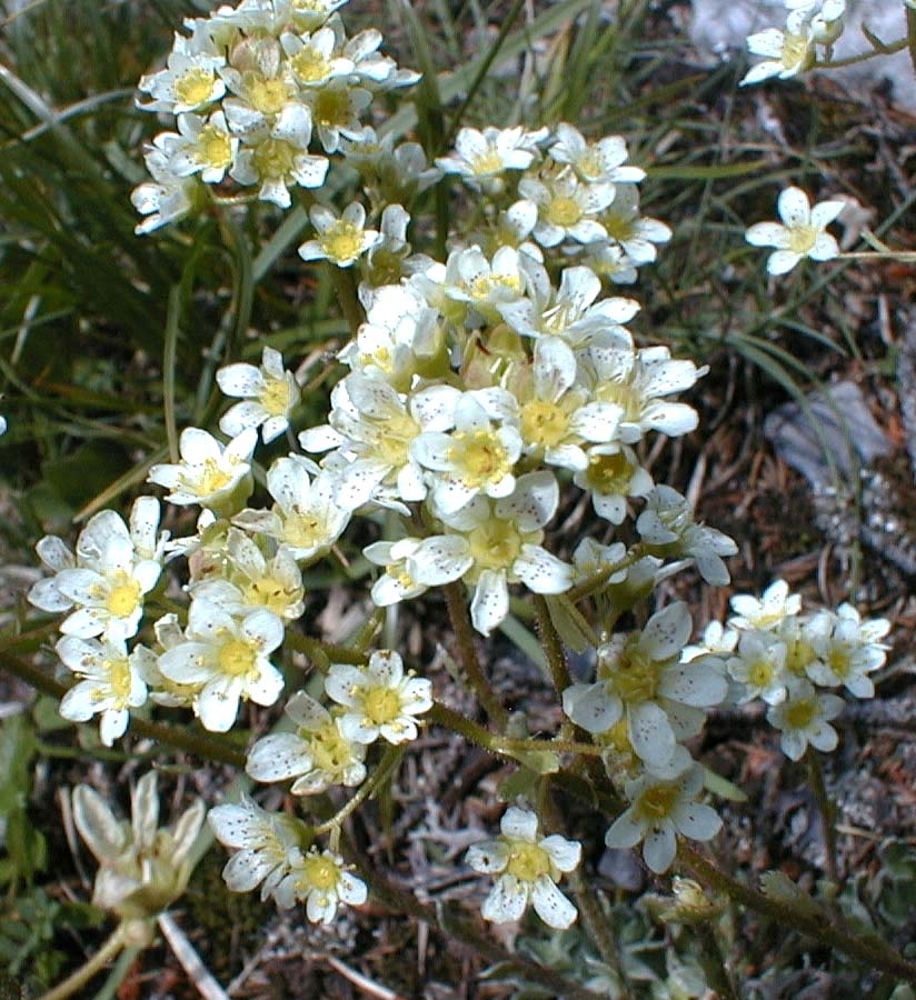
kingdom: Plantae
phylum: Tracheophyta
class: Magnoliopsida
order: Saxifragales
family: Saxifragaceae
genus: Saxifraga
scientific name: Saxifraga paniculata
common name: Livelong saxifrage
